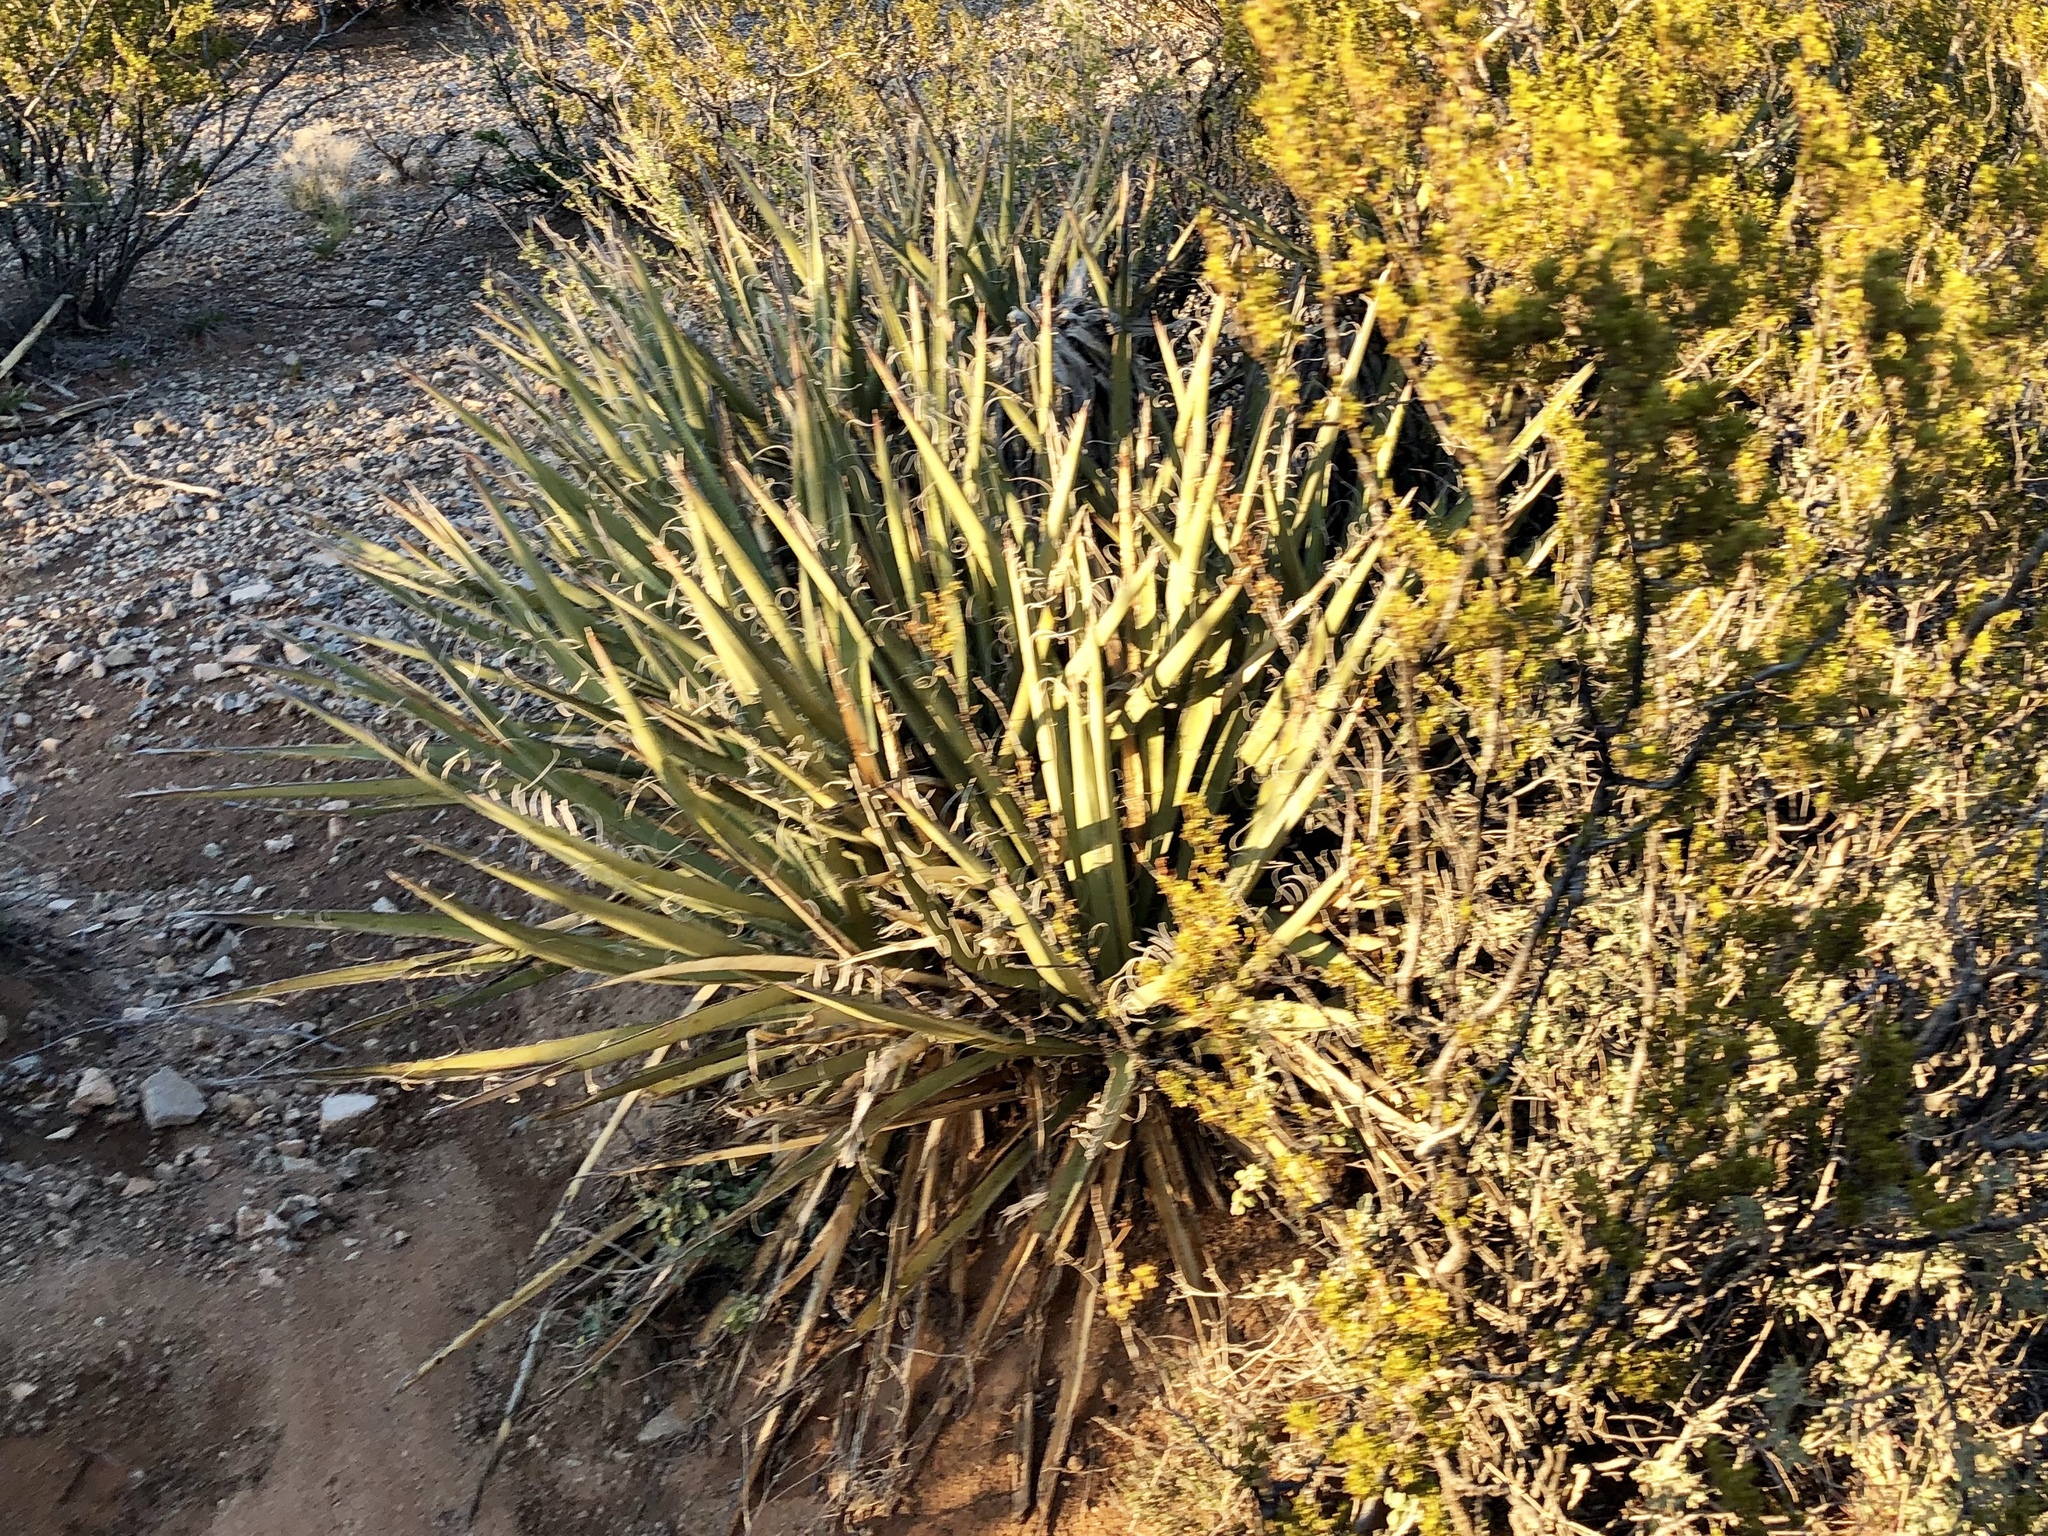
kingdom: Plantae
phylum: Tracheophyta
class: Liliopsida
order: Asparagales
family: Asparagaceae
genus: Yucca
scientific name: Yucca baccata
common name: Banana yucca
